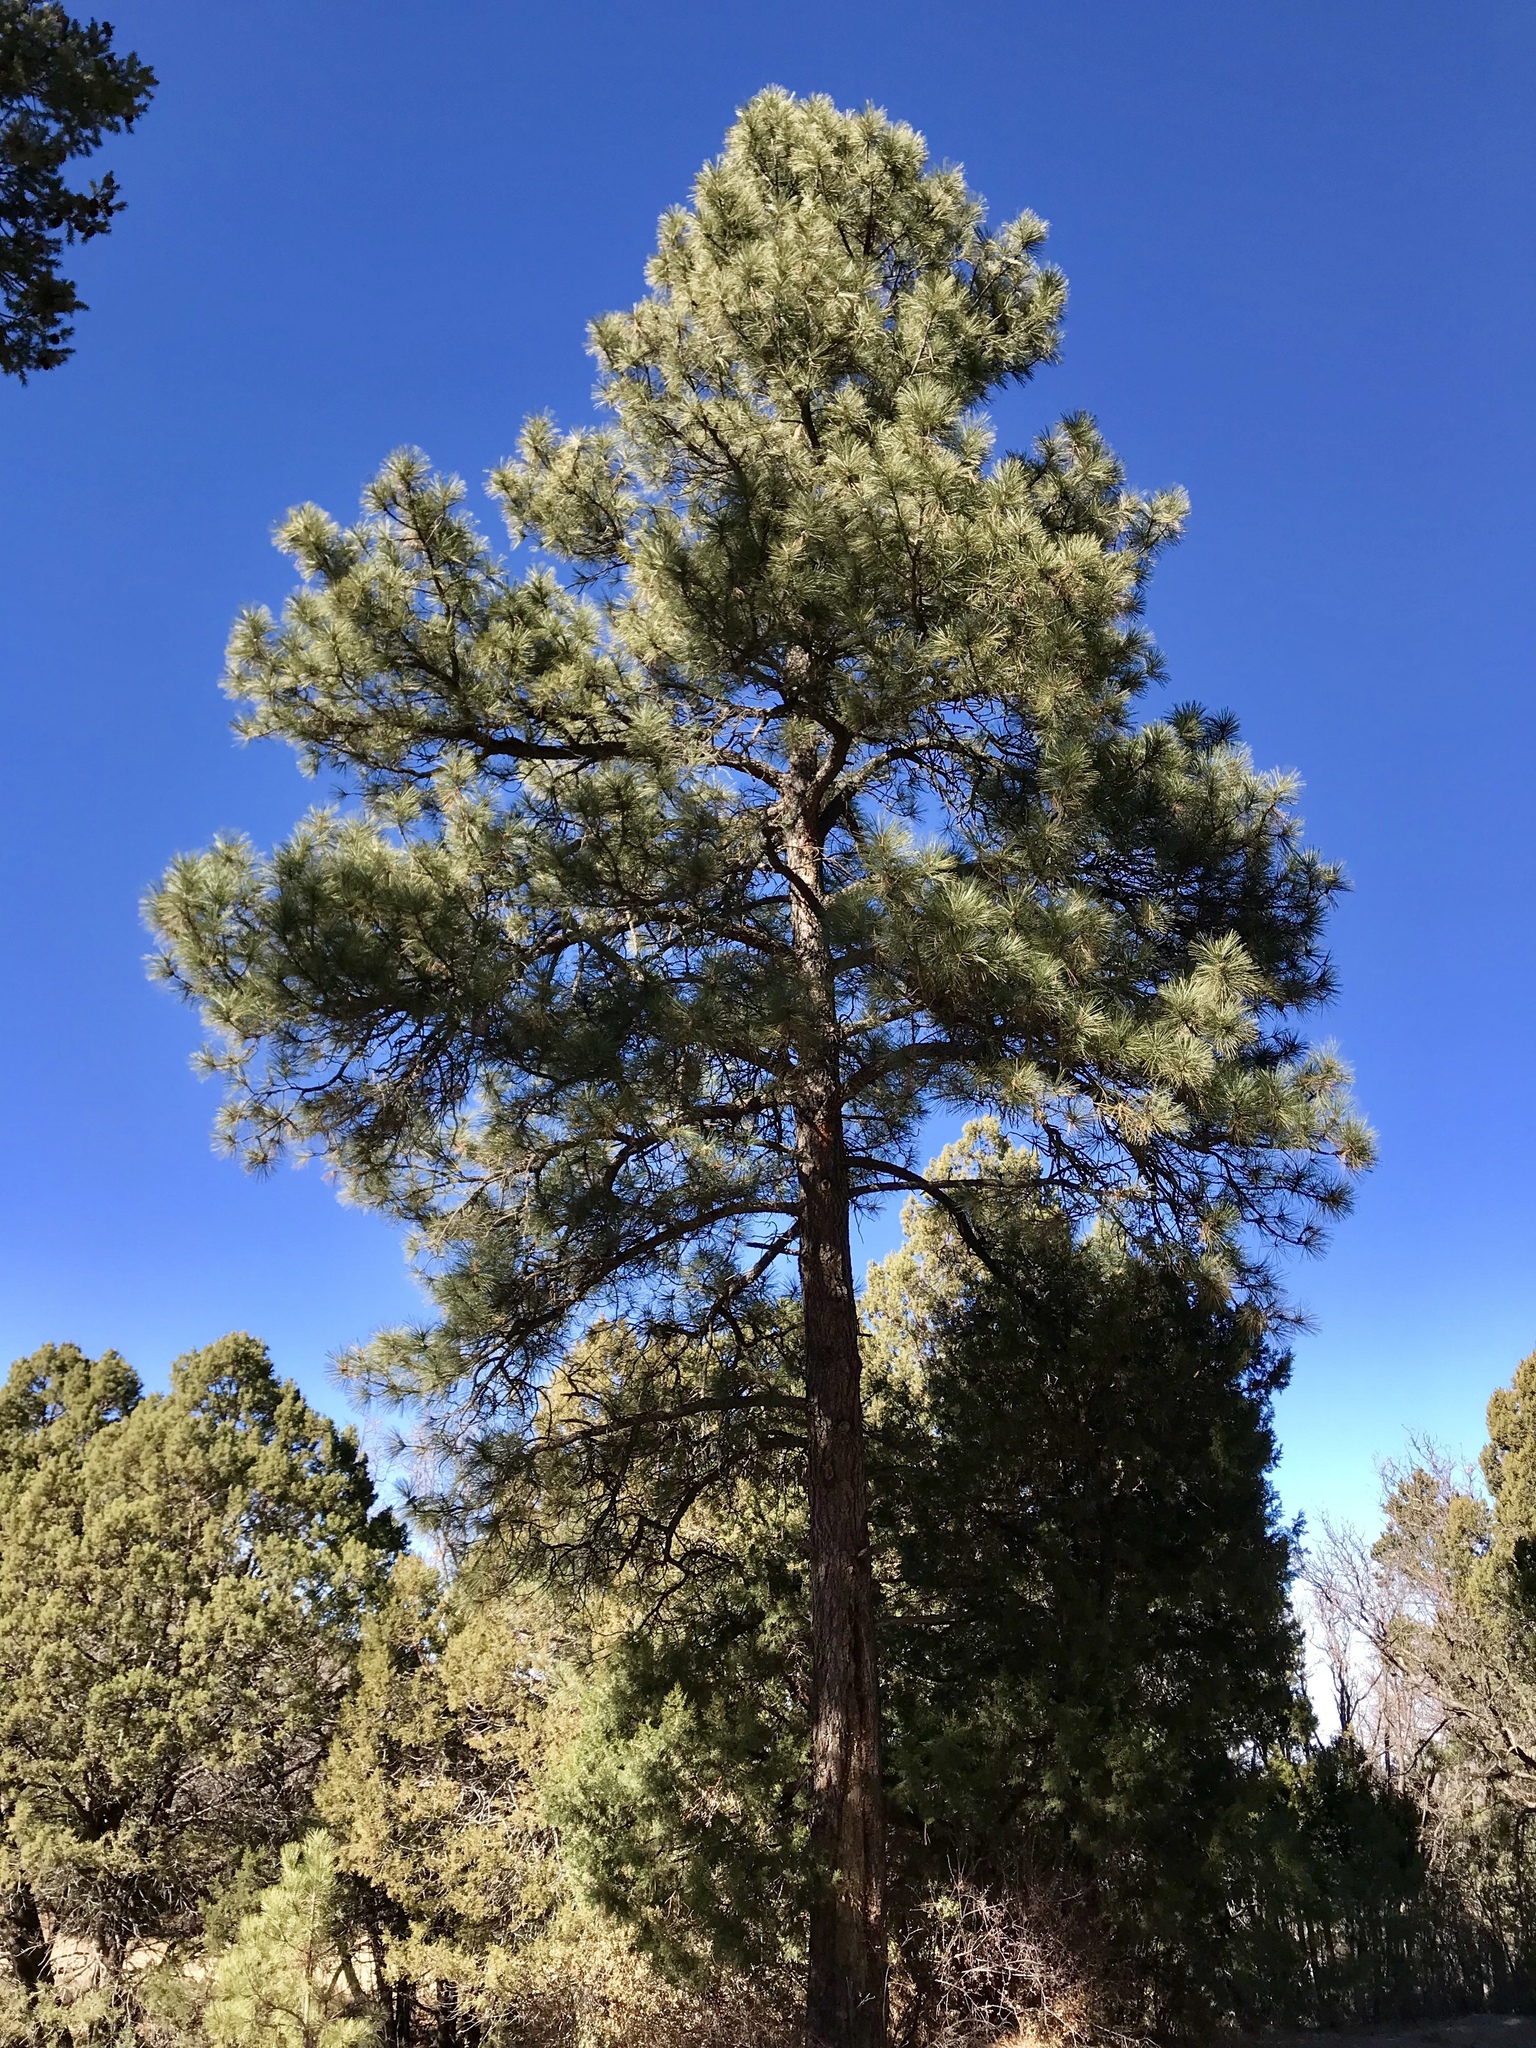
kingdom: Plantae
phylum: Tracheophyta
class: Pinopsida
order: Pinales
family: Pinaceae
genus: Pinus
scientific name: Pinus ponderosa
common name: Western yellow-pine
